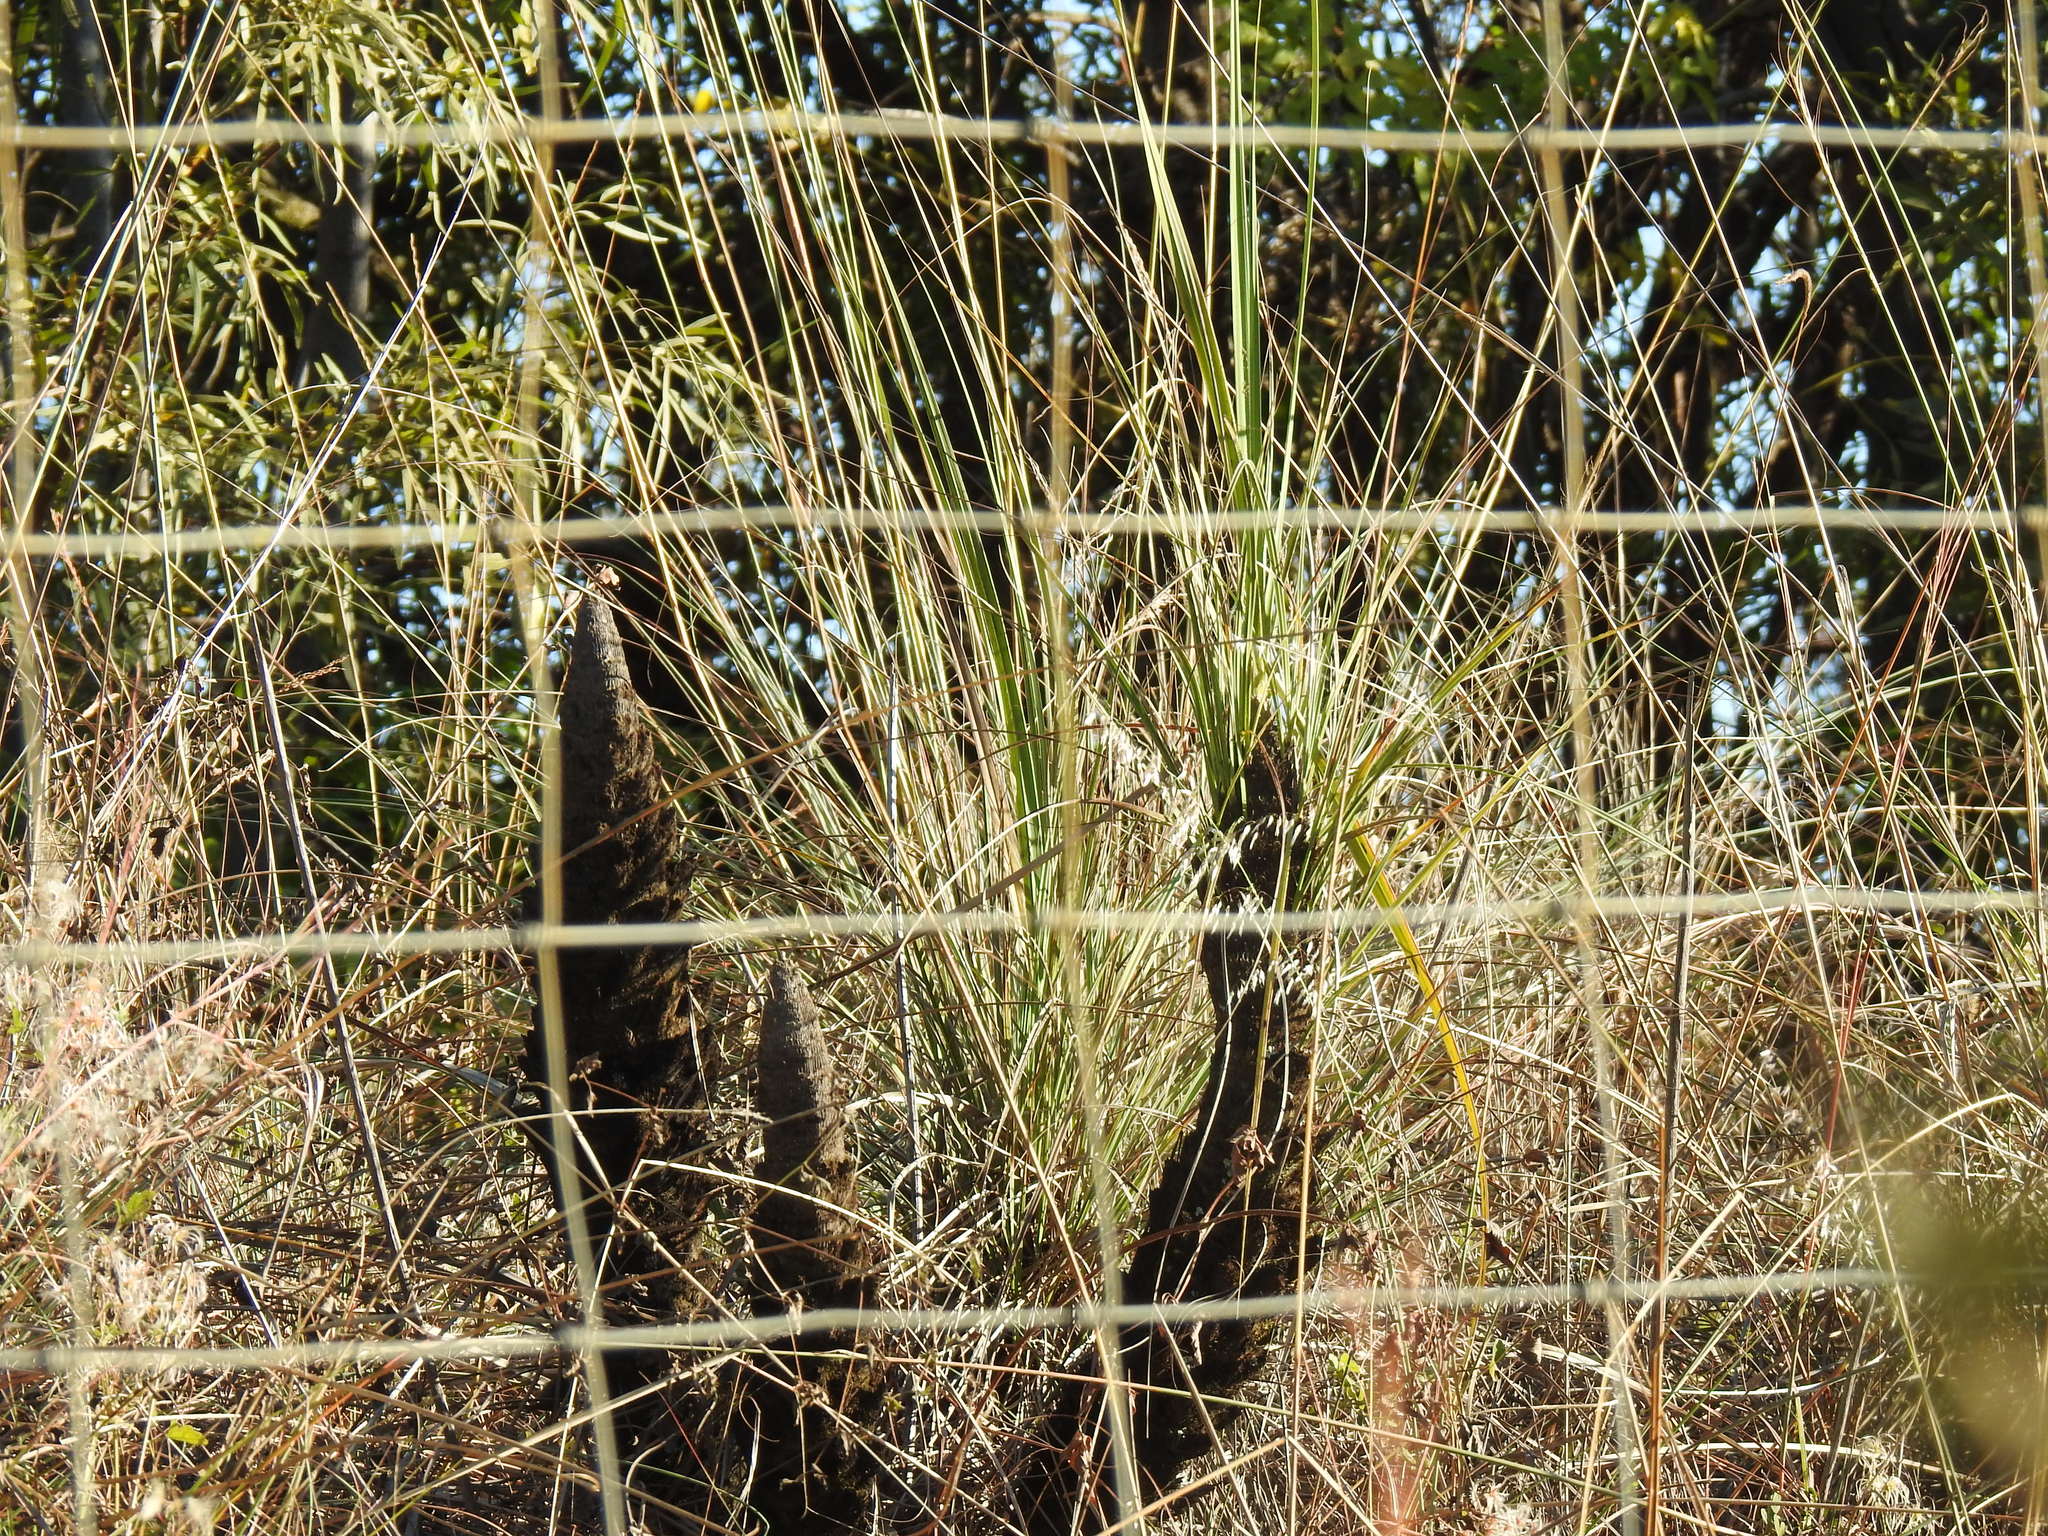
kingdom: Plantae
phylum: Tracheophyta
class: Liliopsida
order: Pandanales
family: Velloziaceae
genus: Xerophyta
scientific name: Xerophyta retinervis
